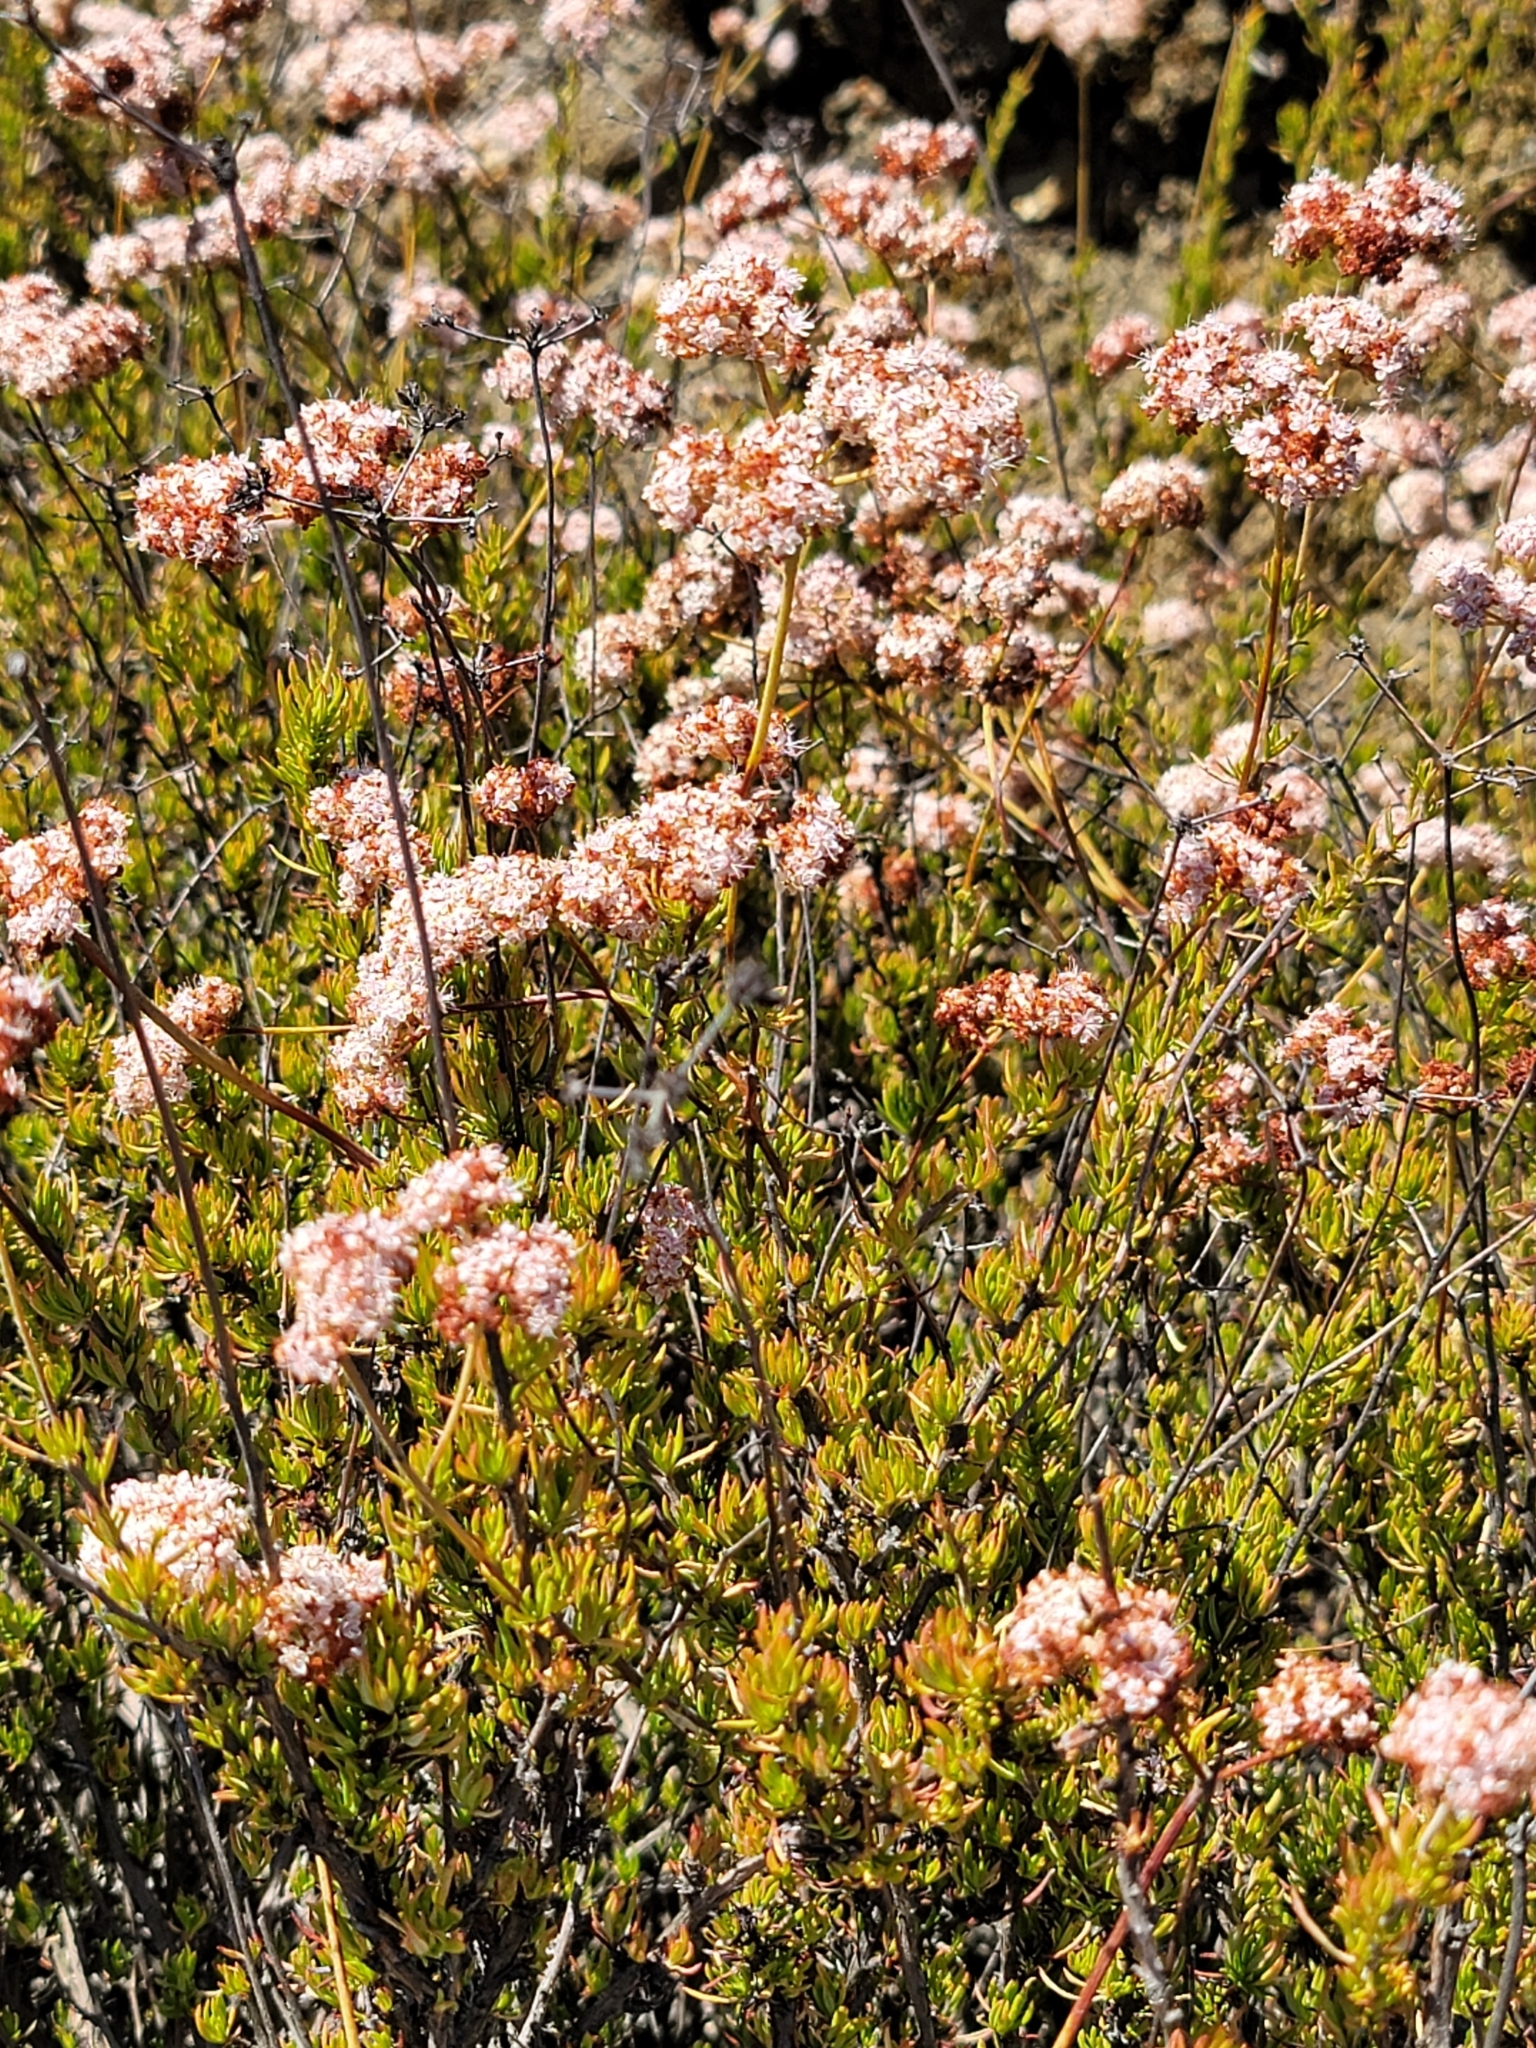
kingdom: Plantae
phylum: Tracheophyta
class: Magnoliopsida
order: Caryophyllales
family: Polygonaceae
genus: Eriogonum
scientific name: Eriogonum fasciculatum
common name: California wild buckwheat
